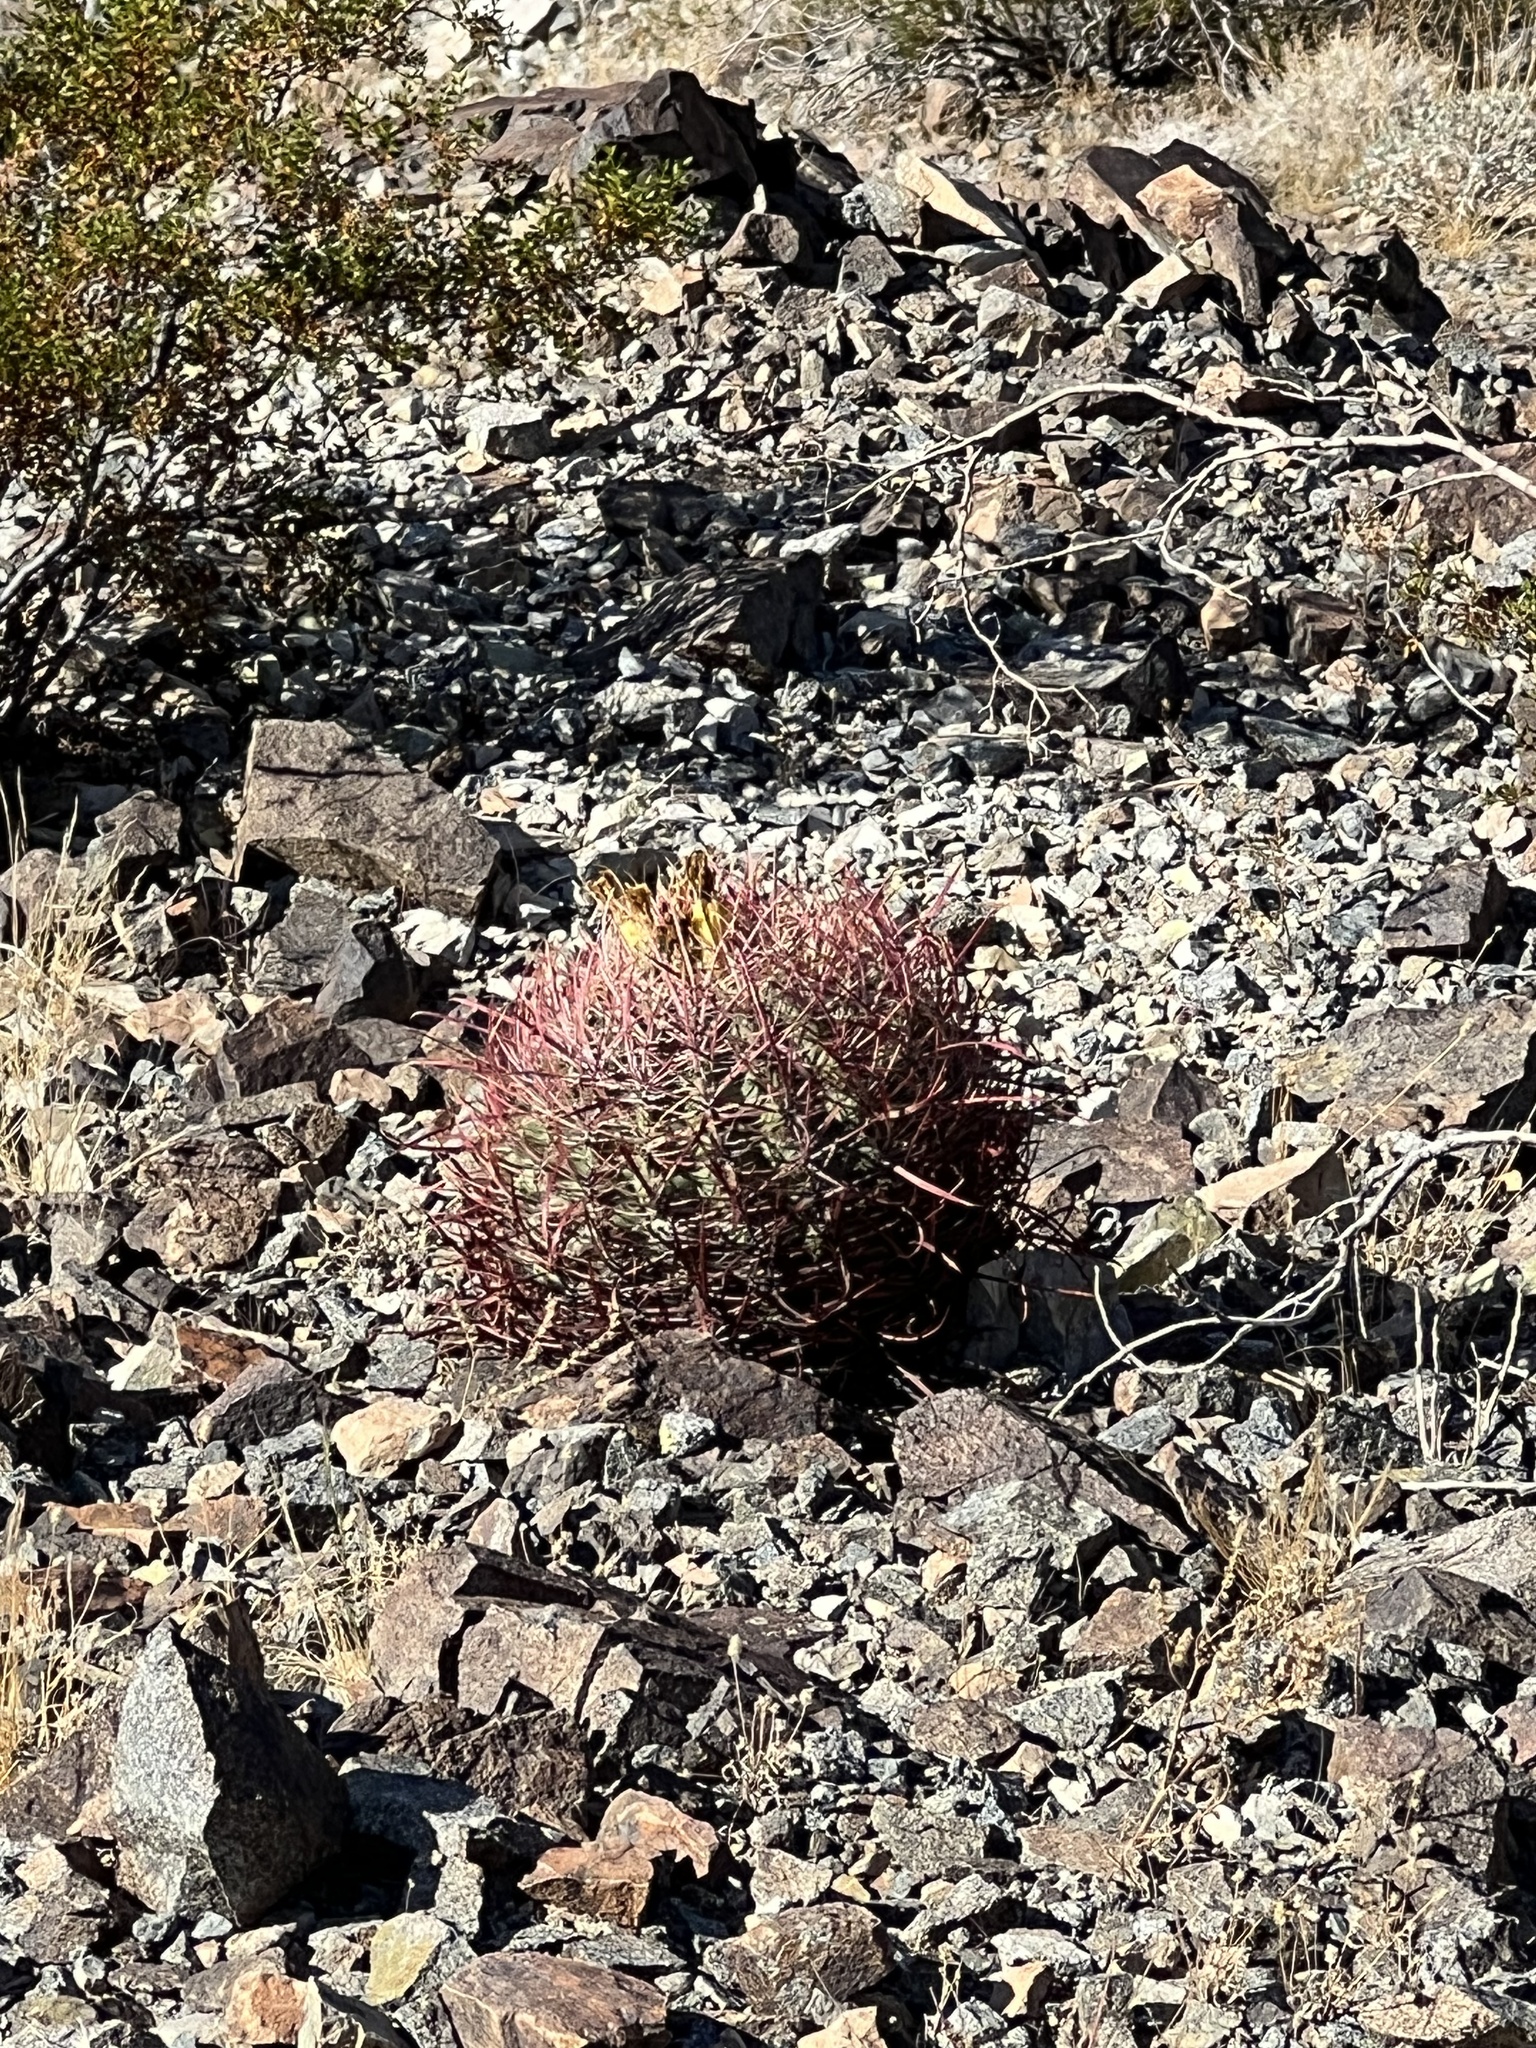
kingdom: Plantae
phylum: Tracheophyta
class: Magnoliopsida
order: Caryophyllales
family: Cactaceae
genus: Ferocactus
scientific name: Ferocactus cylindraceus
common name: California barrel cactus
